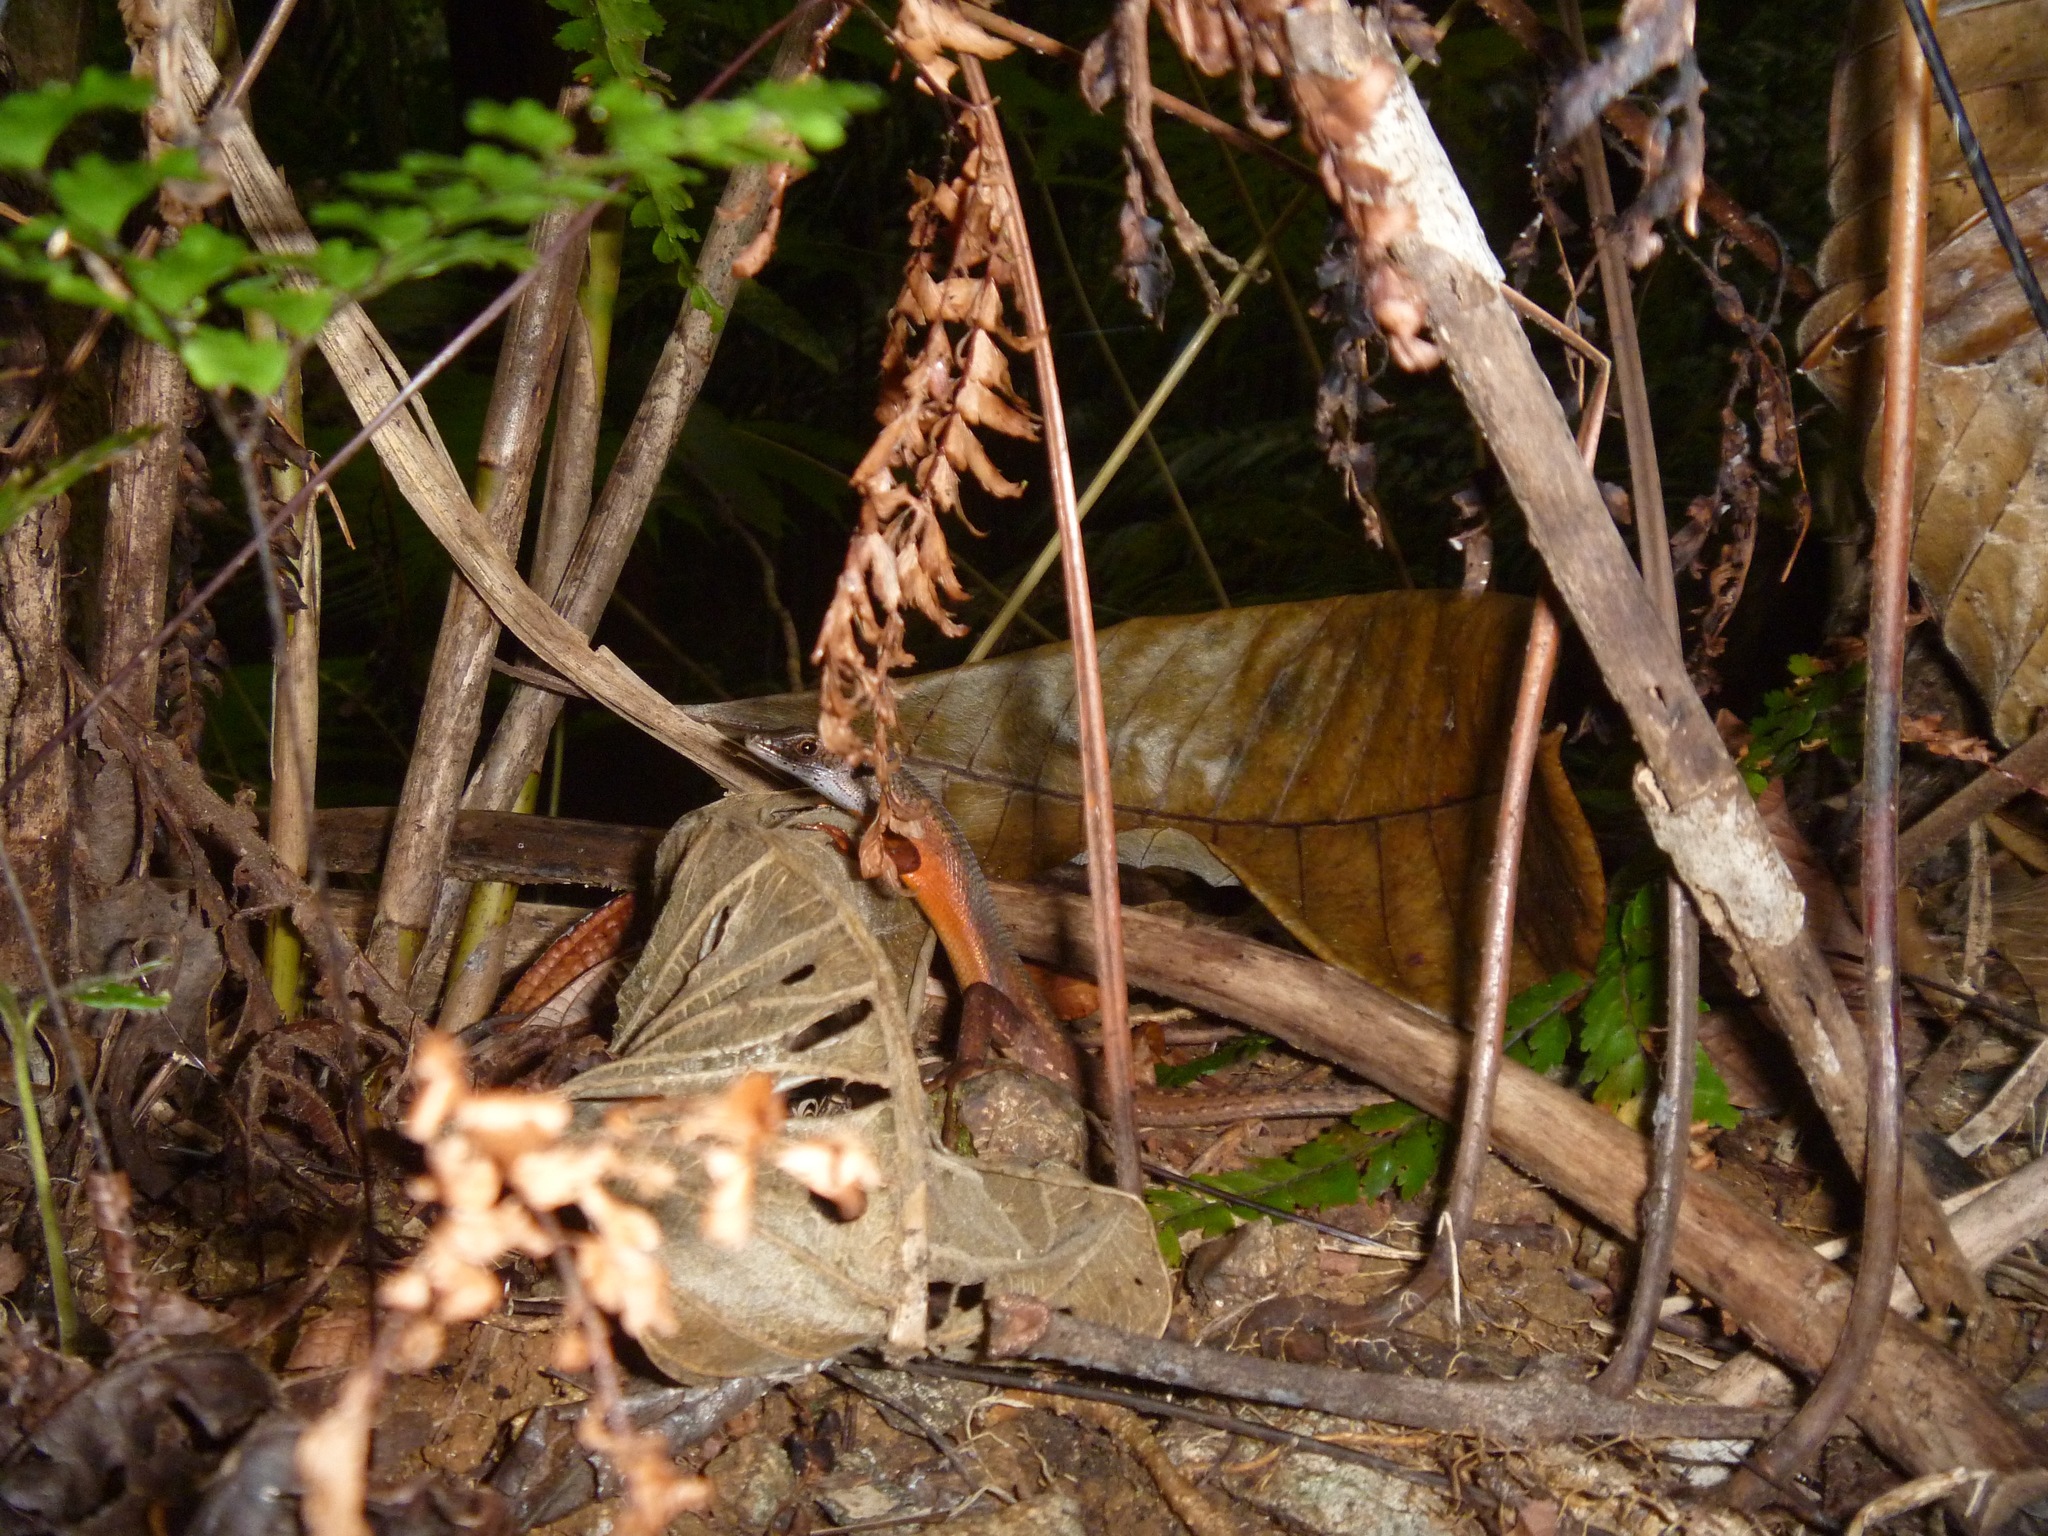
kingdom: Animalia
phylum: Chordata
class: Squamata
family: Scincidae
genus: Tropidoscincus
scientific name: Tropidoscincus variabilis
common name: Southern whiptailed skink
